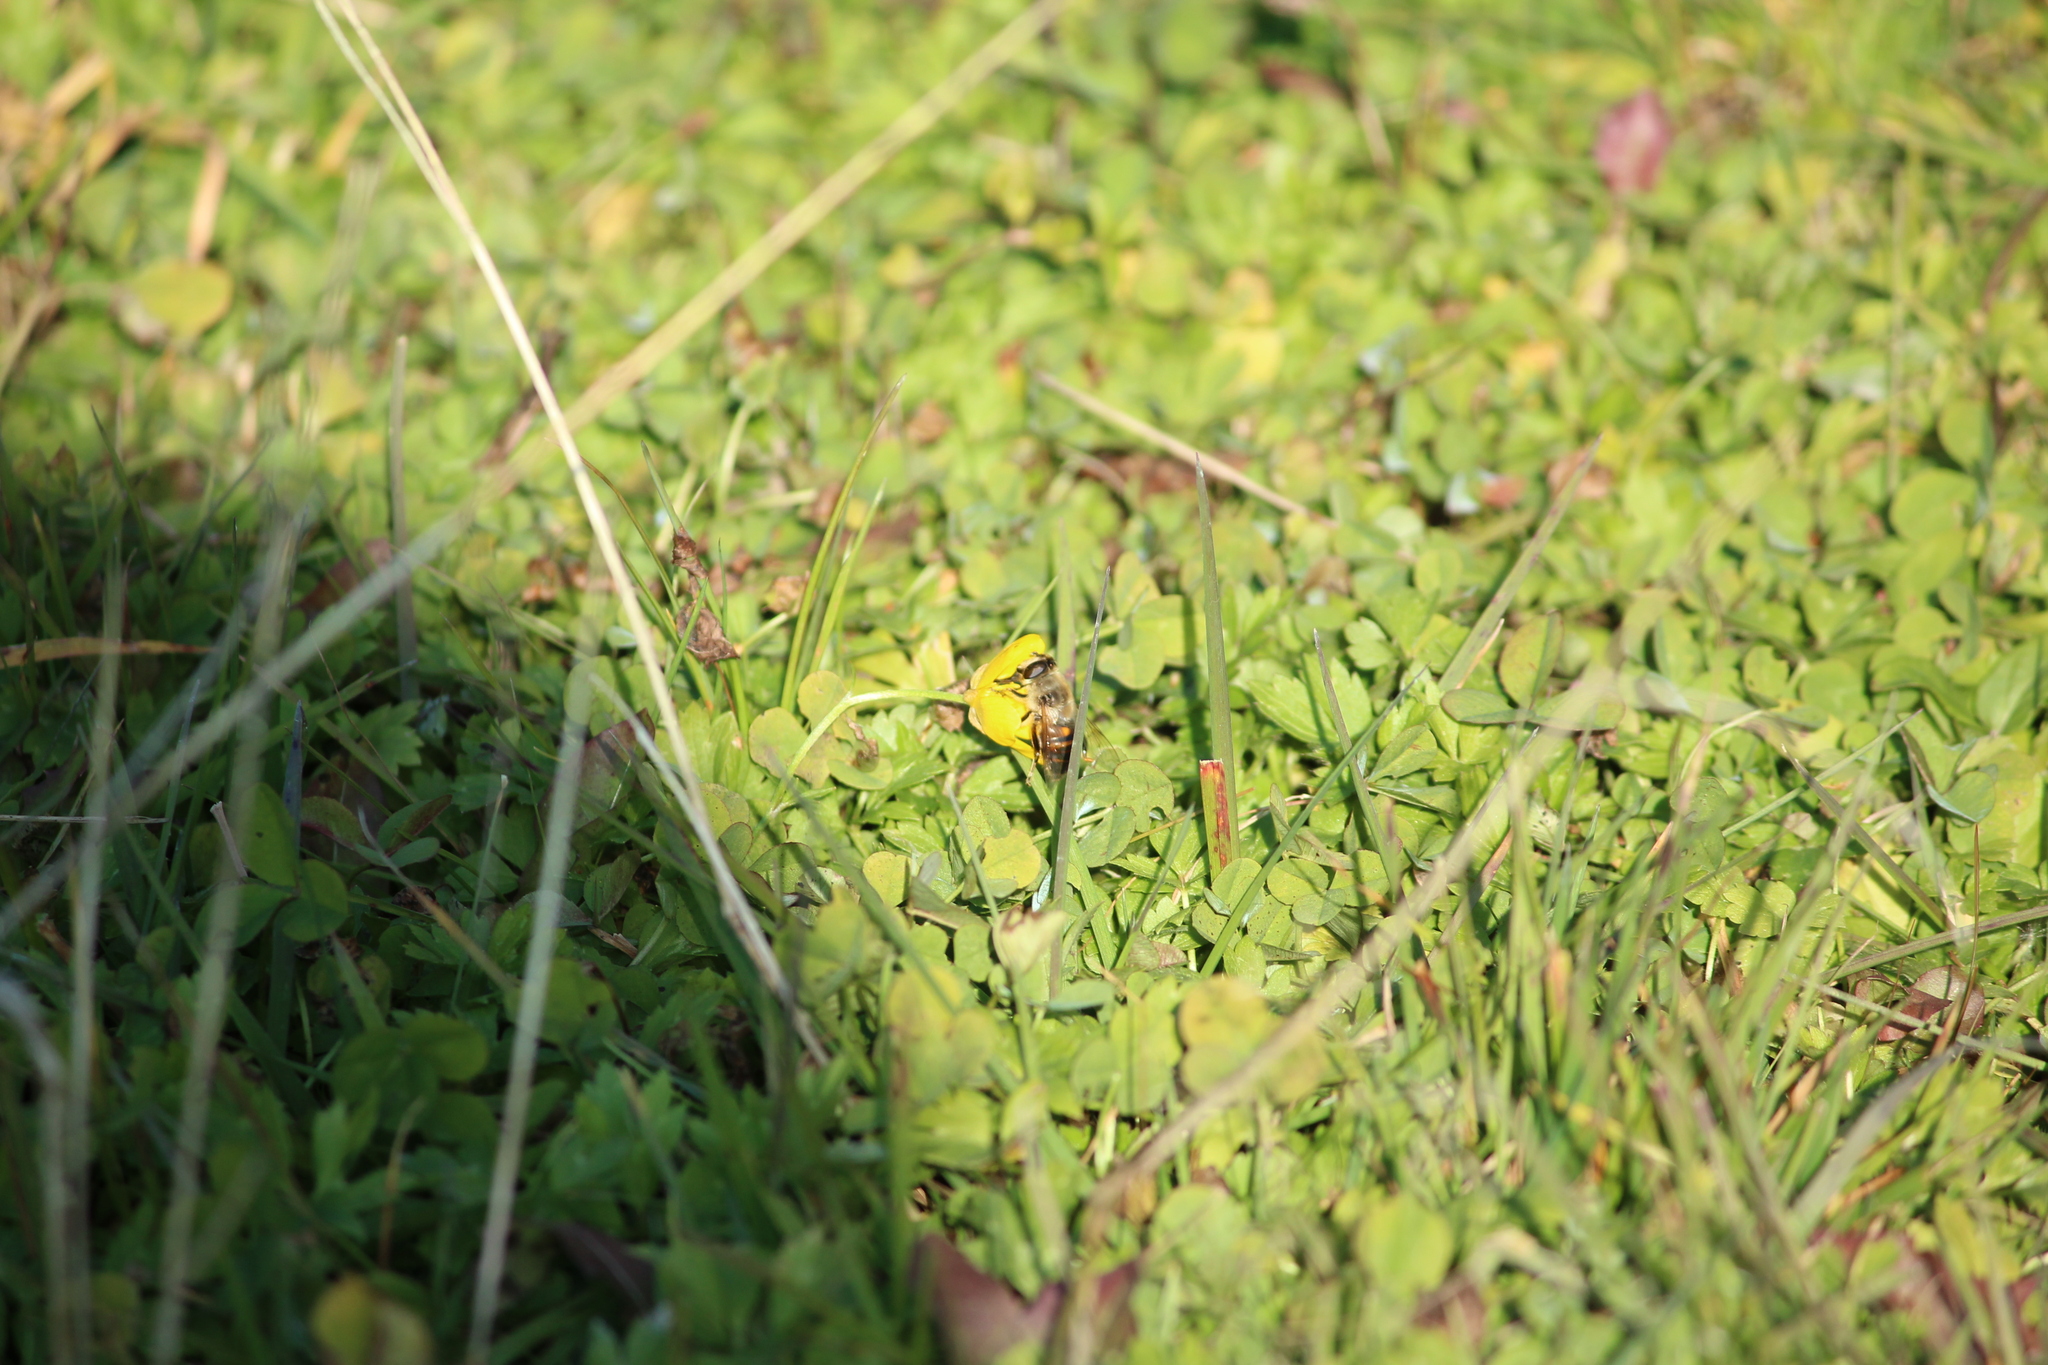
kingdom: Animalia
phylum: Arthropoda
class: Insecta
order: Diptera
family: Syrphidae
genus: Eristalis
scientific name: Eristalis tenax
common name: Drone fly
